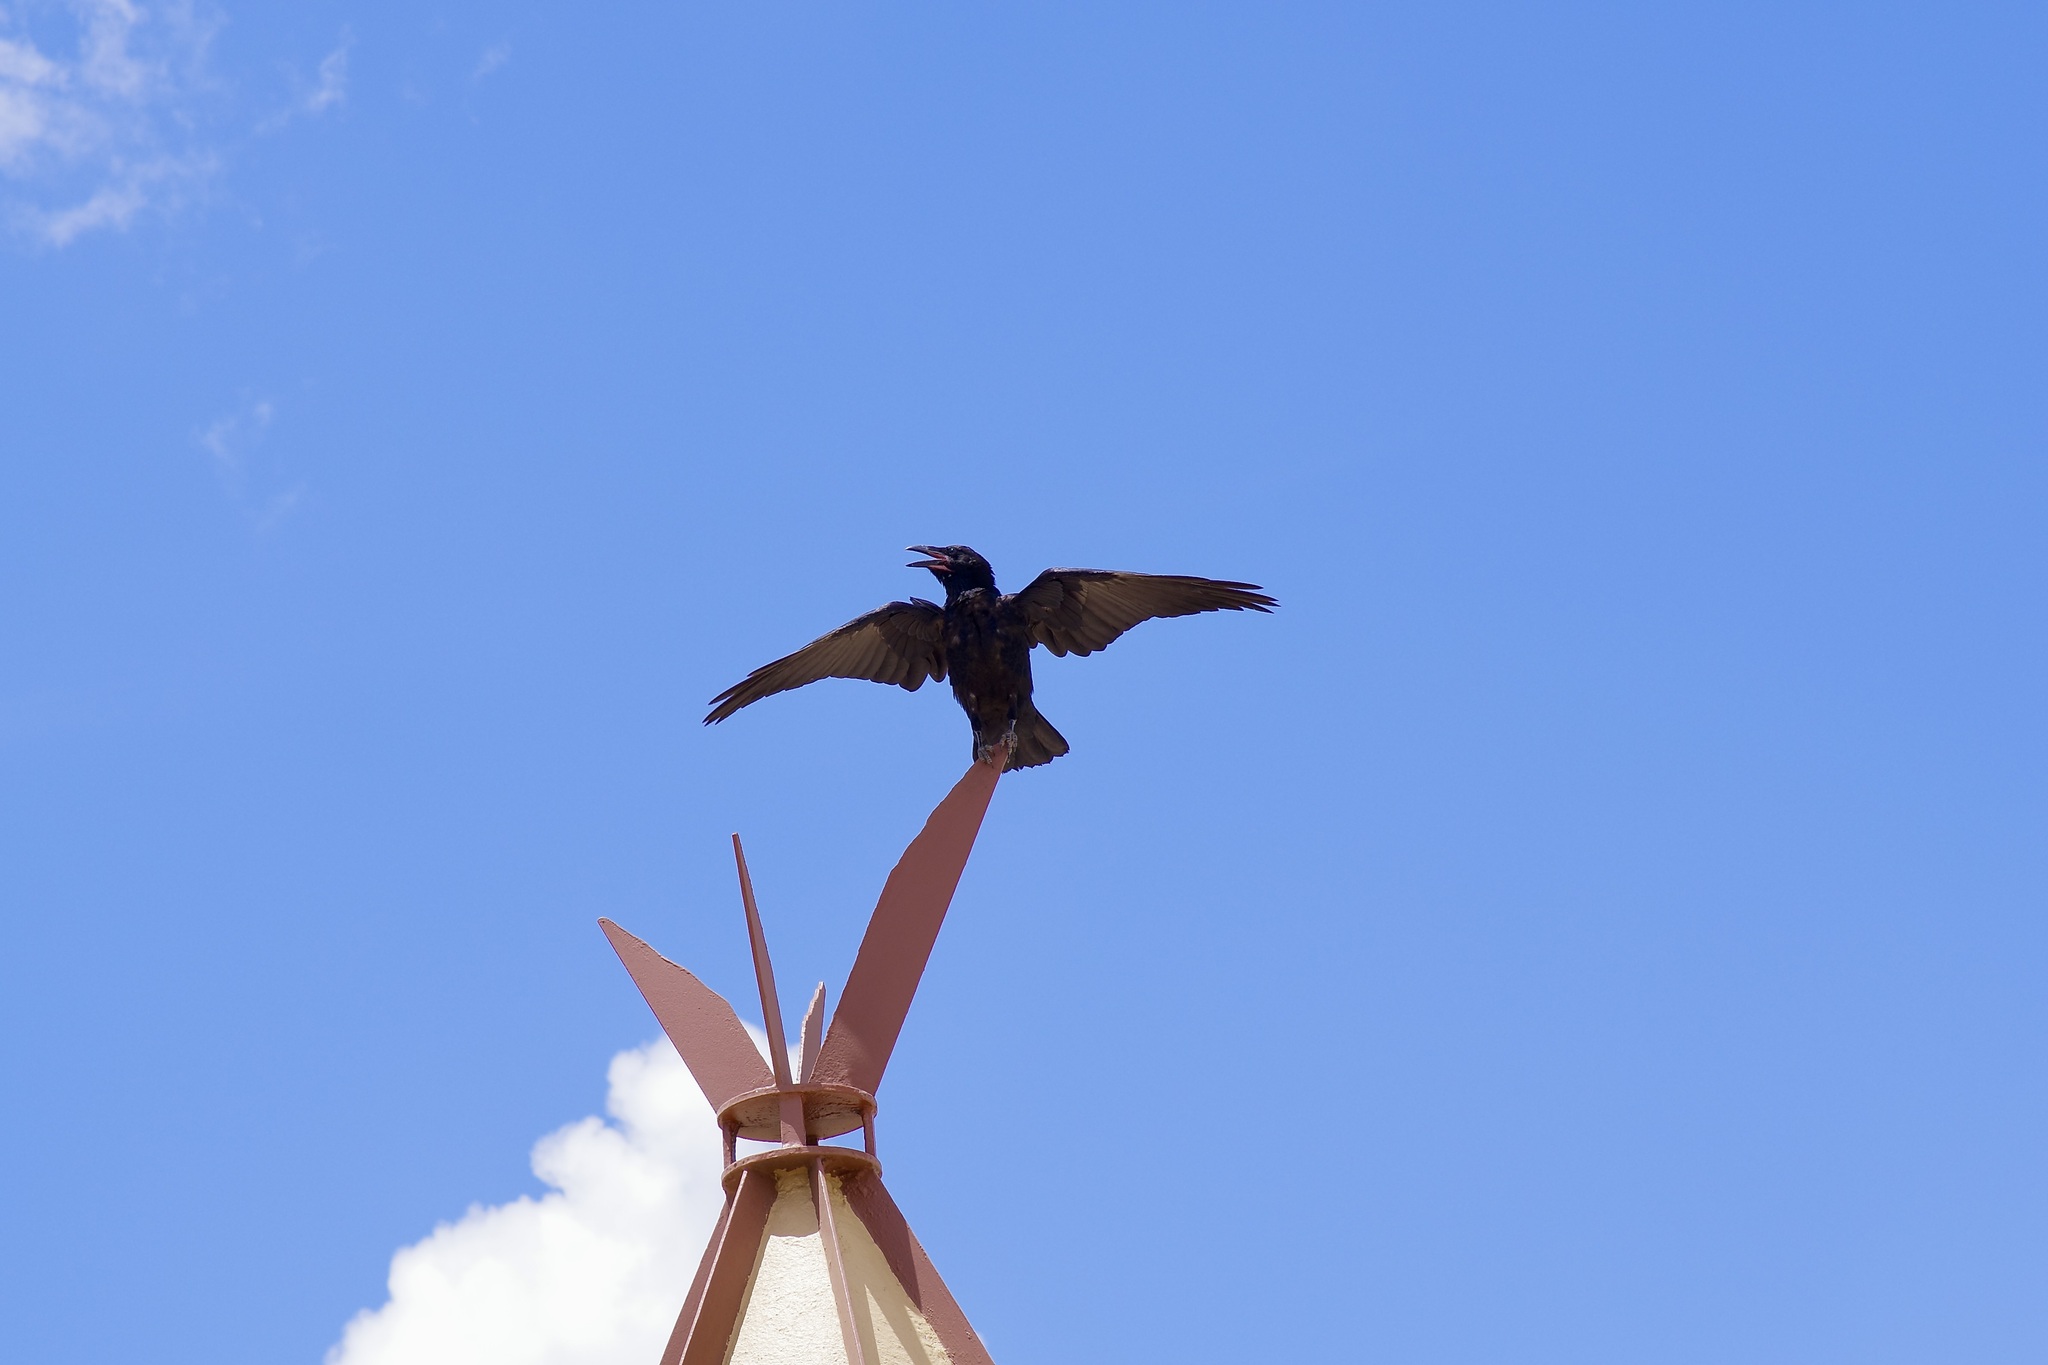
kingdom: Animalia
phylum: Chordata
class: Aves
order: Passeriformes
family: Corvidae
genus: Corvus
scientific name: Corvus cryptoleucus
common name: Chihuahuan raven
